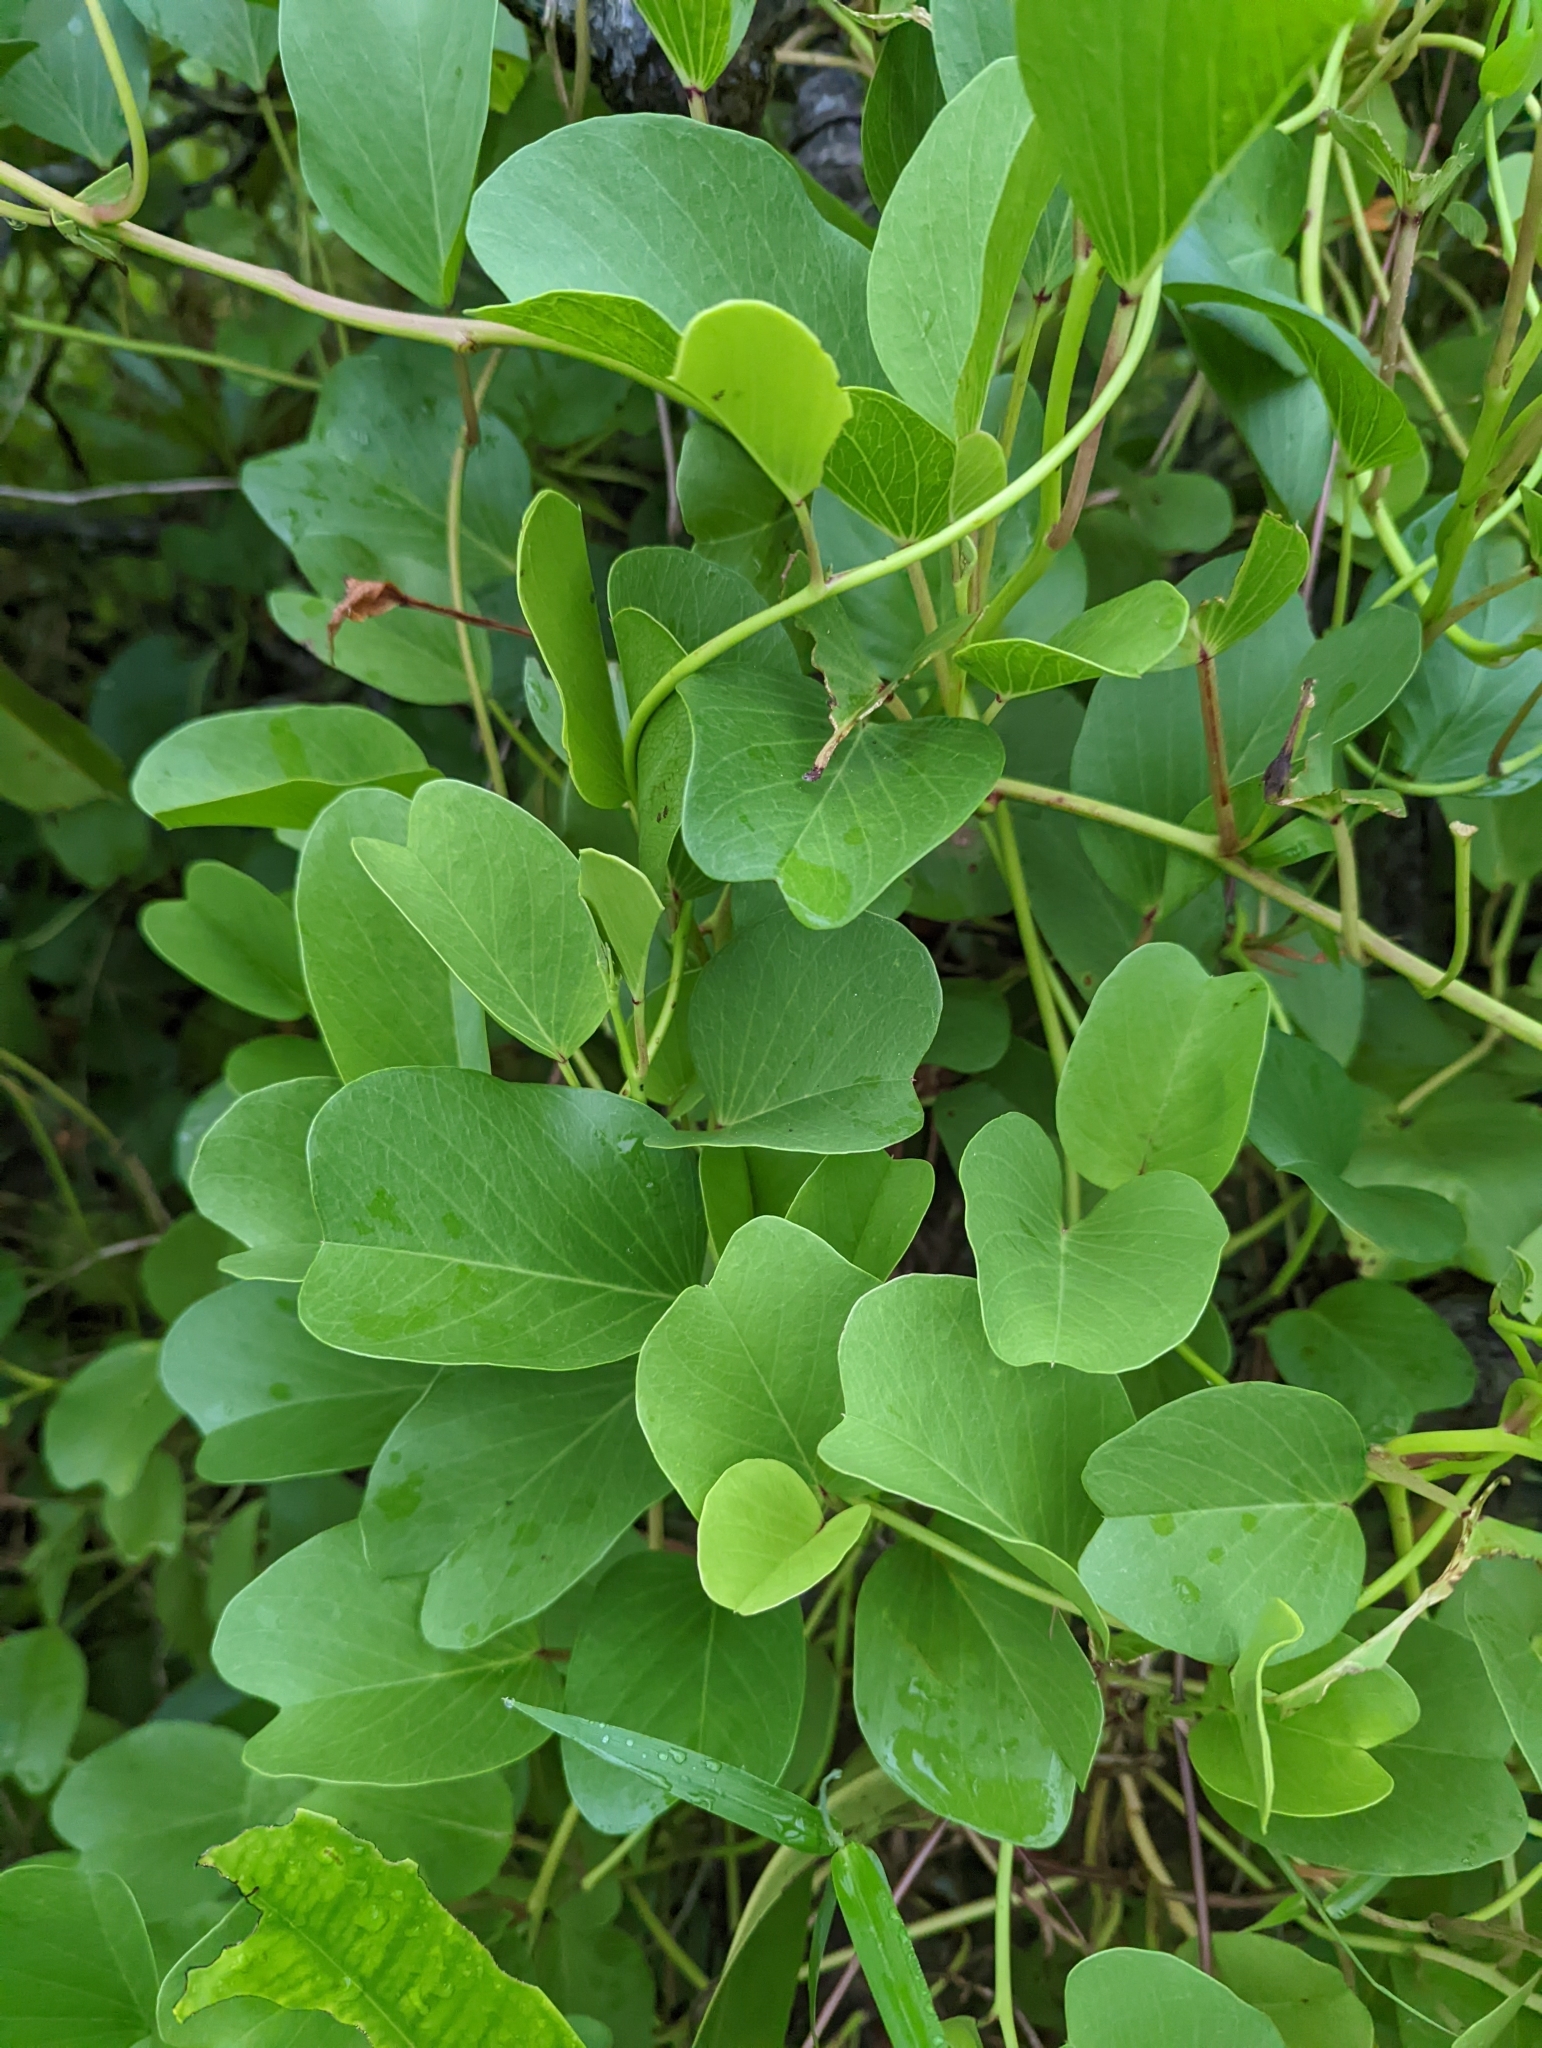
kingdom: Plantae
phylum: Tracheophyta
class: Magnoliopsida
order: Solanales
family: Convolvulaceae
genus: Ipomoea
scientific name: Ipomoea pes-caprae
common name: Beach morning glory
